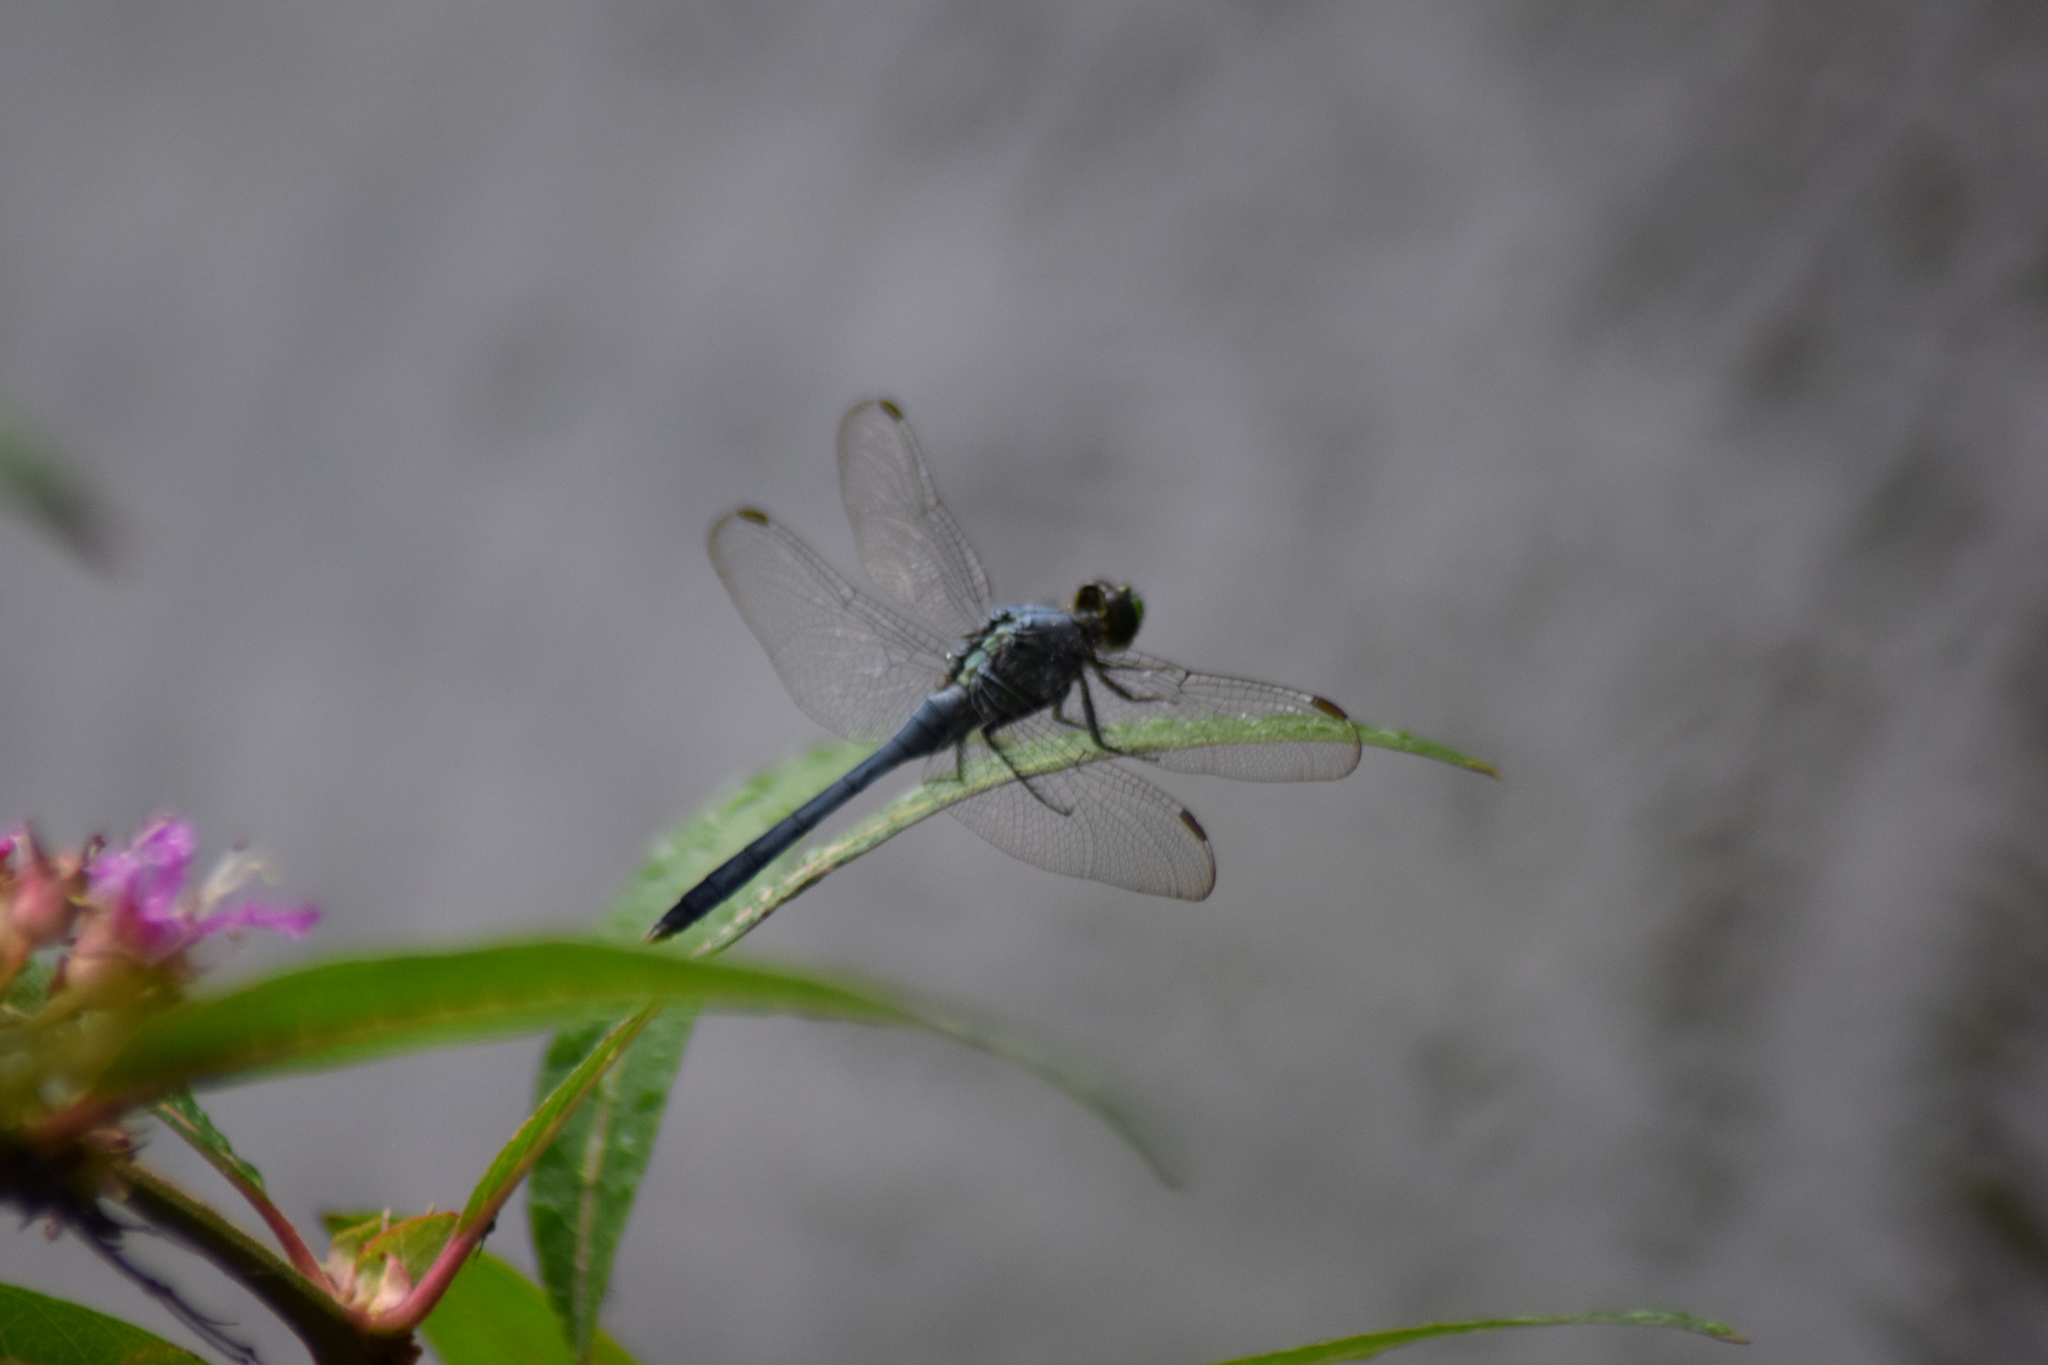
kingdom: Animalia
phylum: Arthropoda
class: Insecta
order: Odonata
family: Libellulidae
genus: Erythemis
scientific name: Erythemis simplicicollis
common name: Eastern pondhawk
